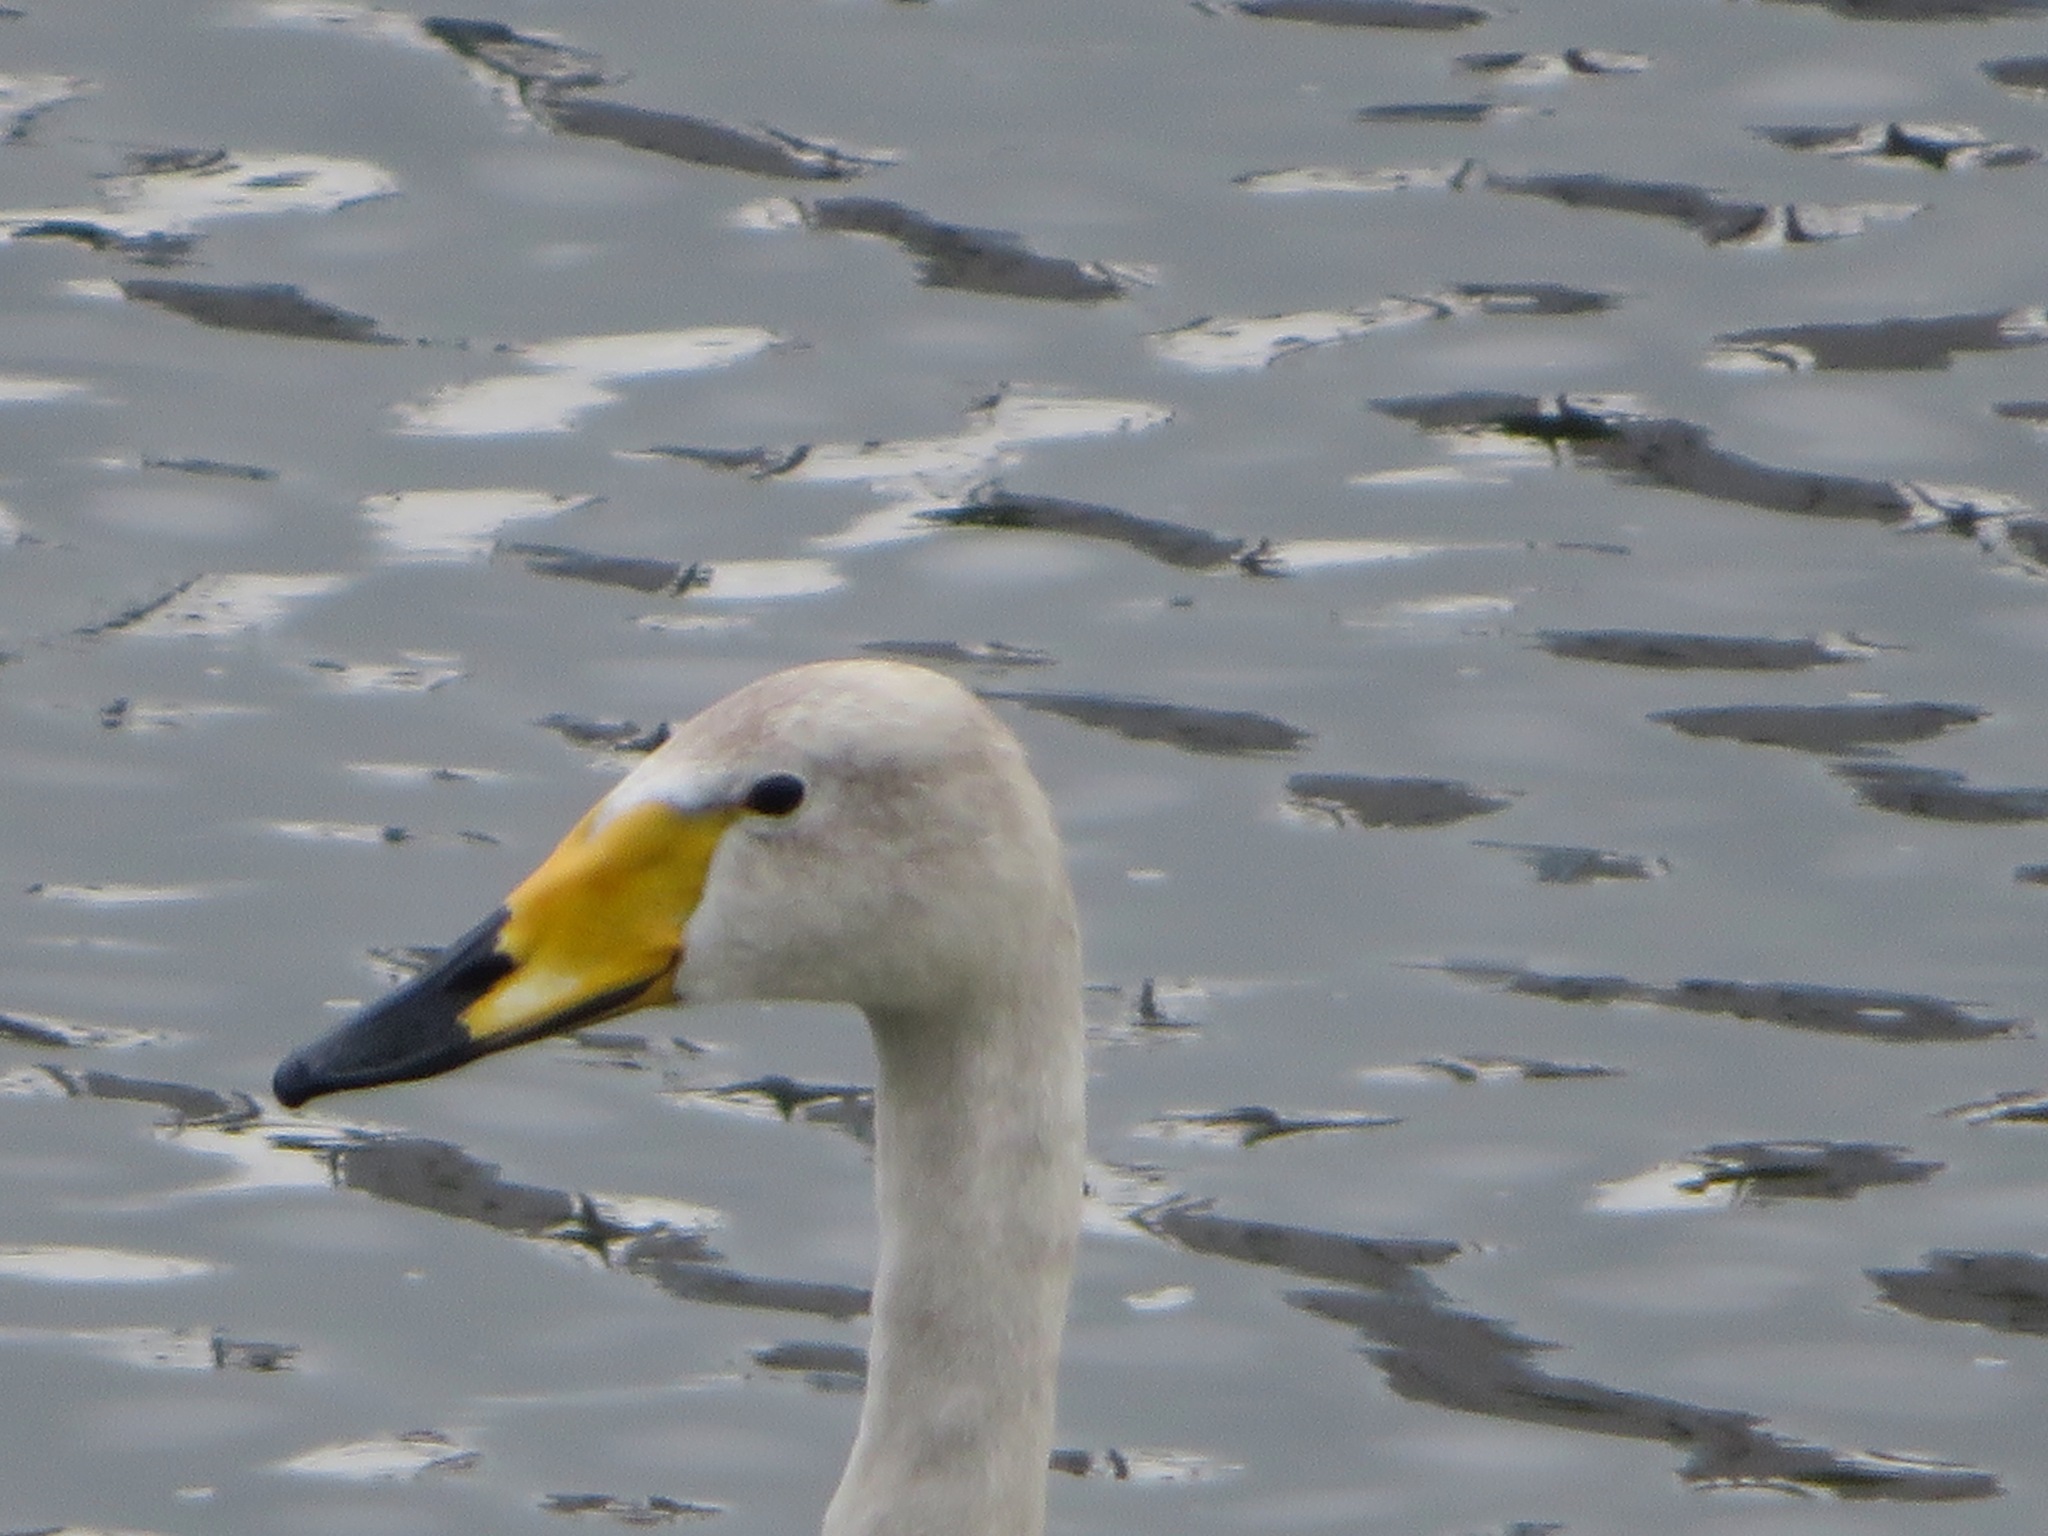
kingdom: Animalia
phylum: Chordata
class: Aves
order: Anseriformes
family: Anatidae
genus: Cygnus
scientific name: Cygnus cygnus
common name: Whooper swan
